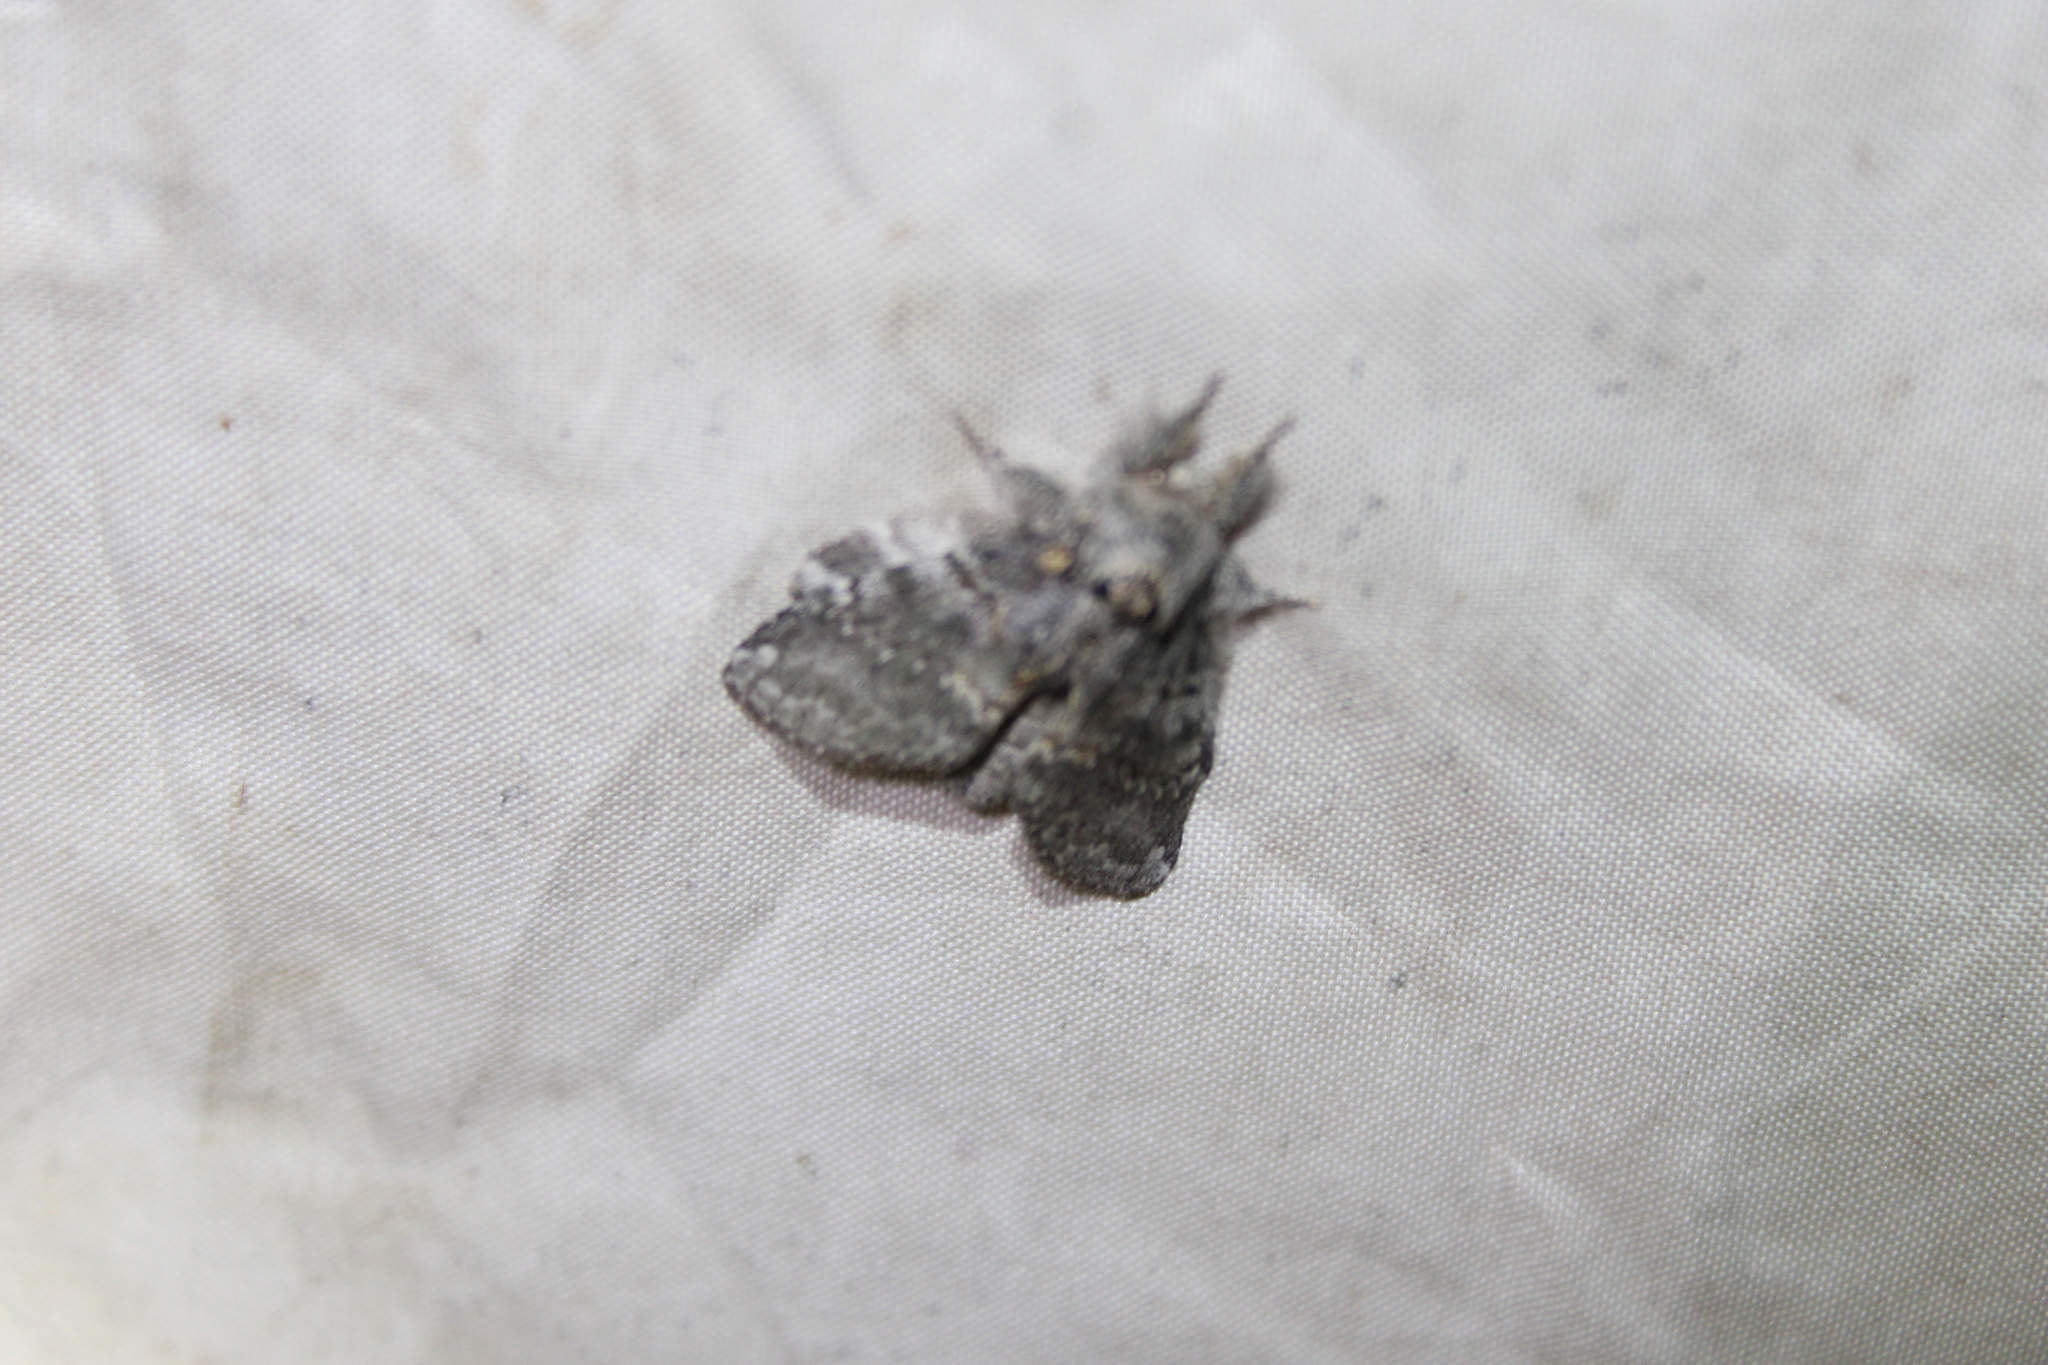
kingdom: Animalia
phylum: Arthropoda
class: Insecta
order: Lepidoptera
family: Notodontidae
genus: Peridea
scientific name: Peridea angulosa
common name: Angulose prominent
